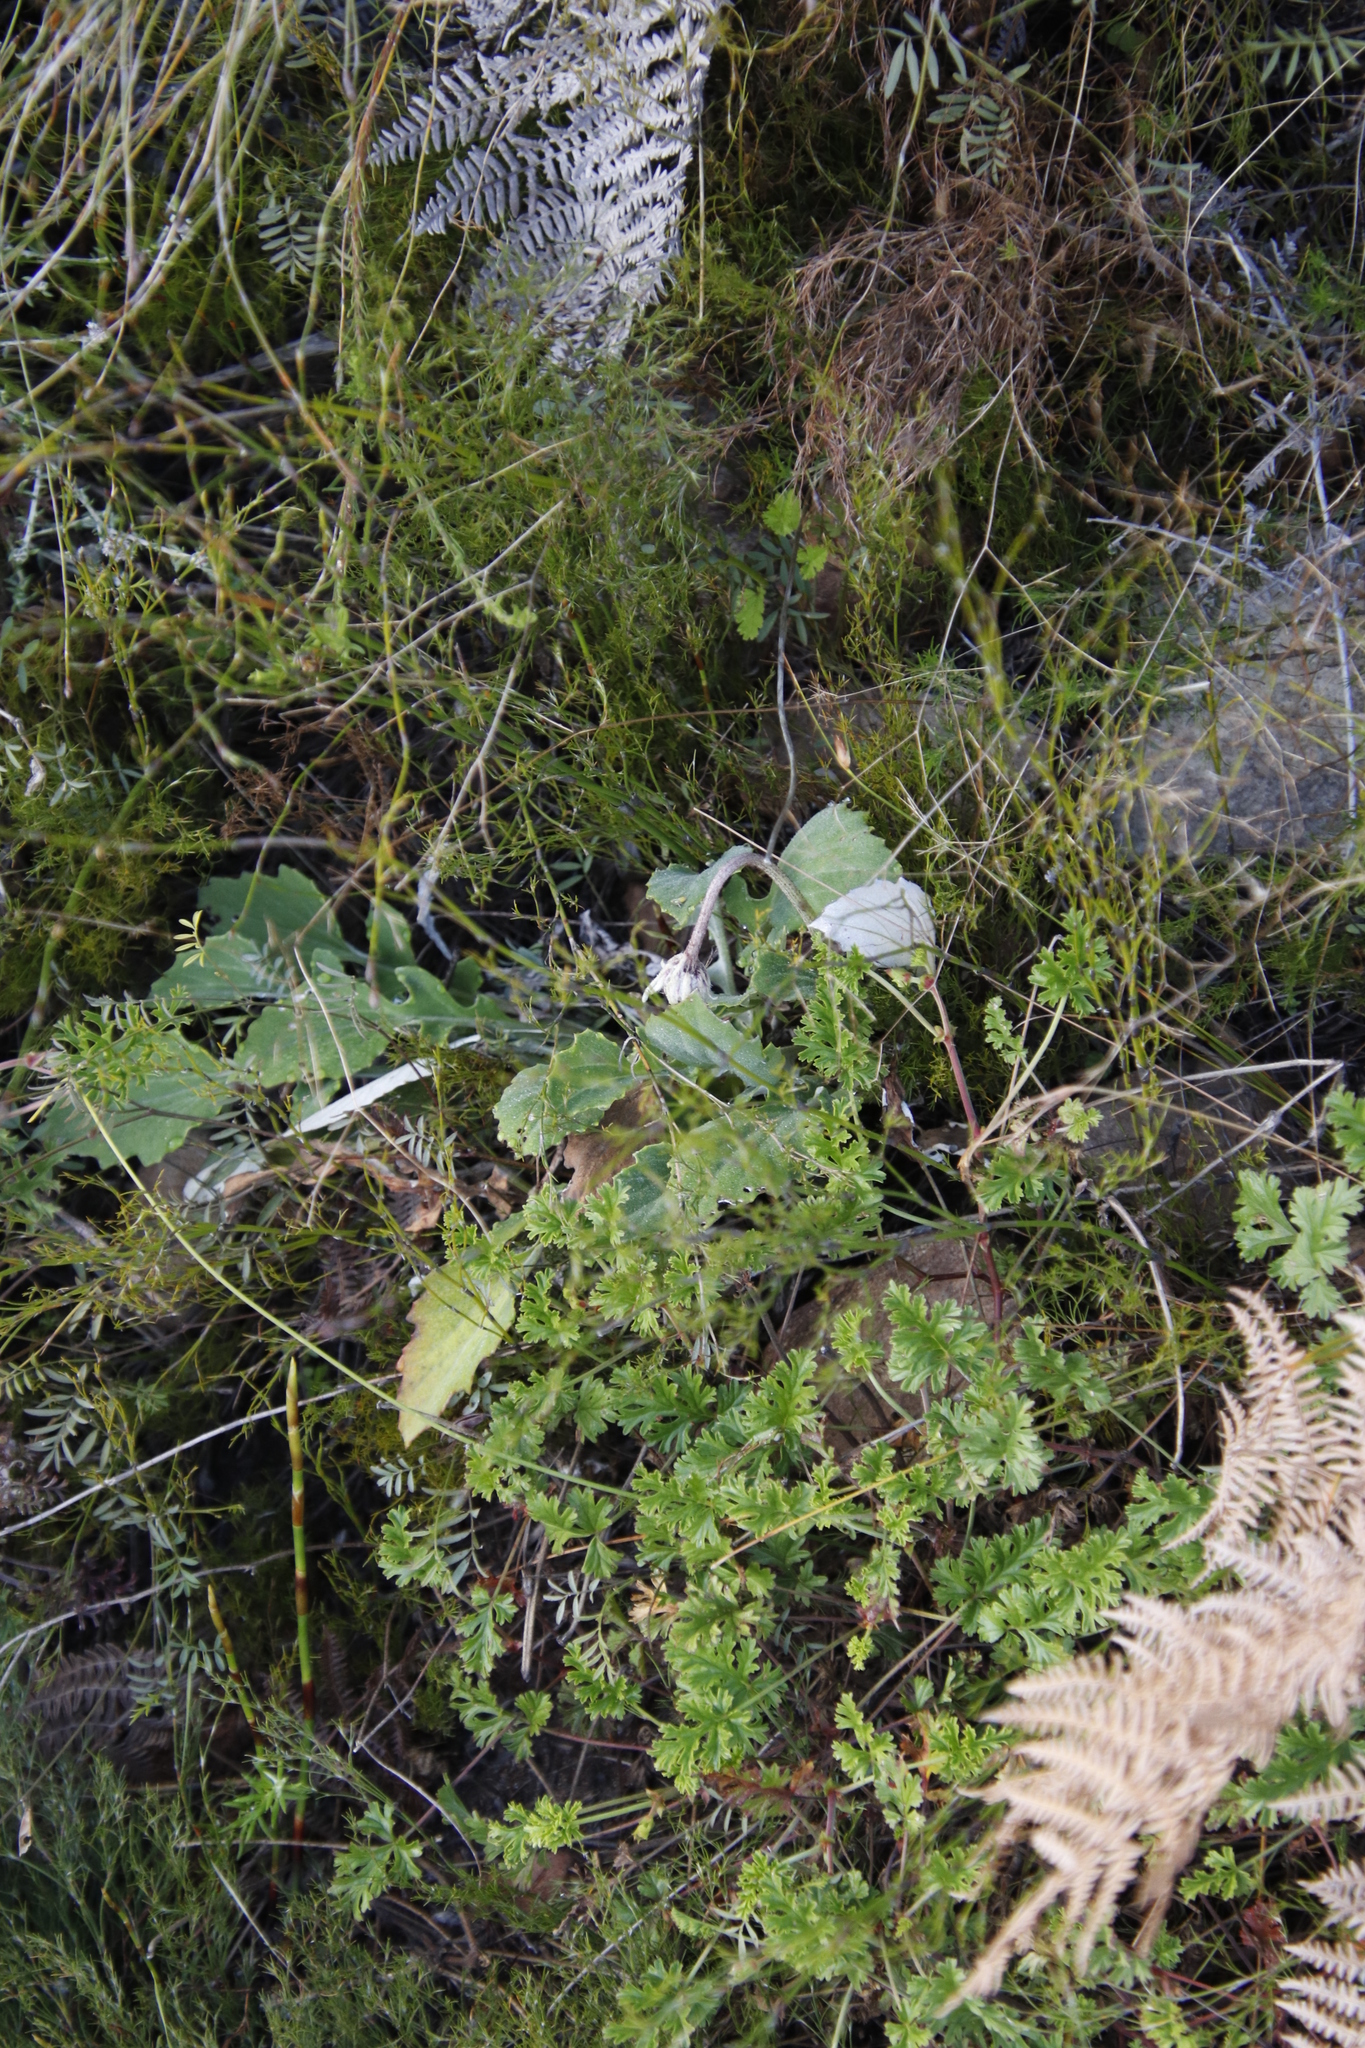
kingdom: Plantae
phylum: Tracheophyta
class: Magnoliopsida
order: Asterales
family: Asteraceae
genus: Arctotis
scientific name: Arctotis acaulis
